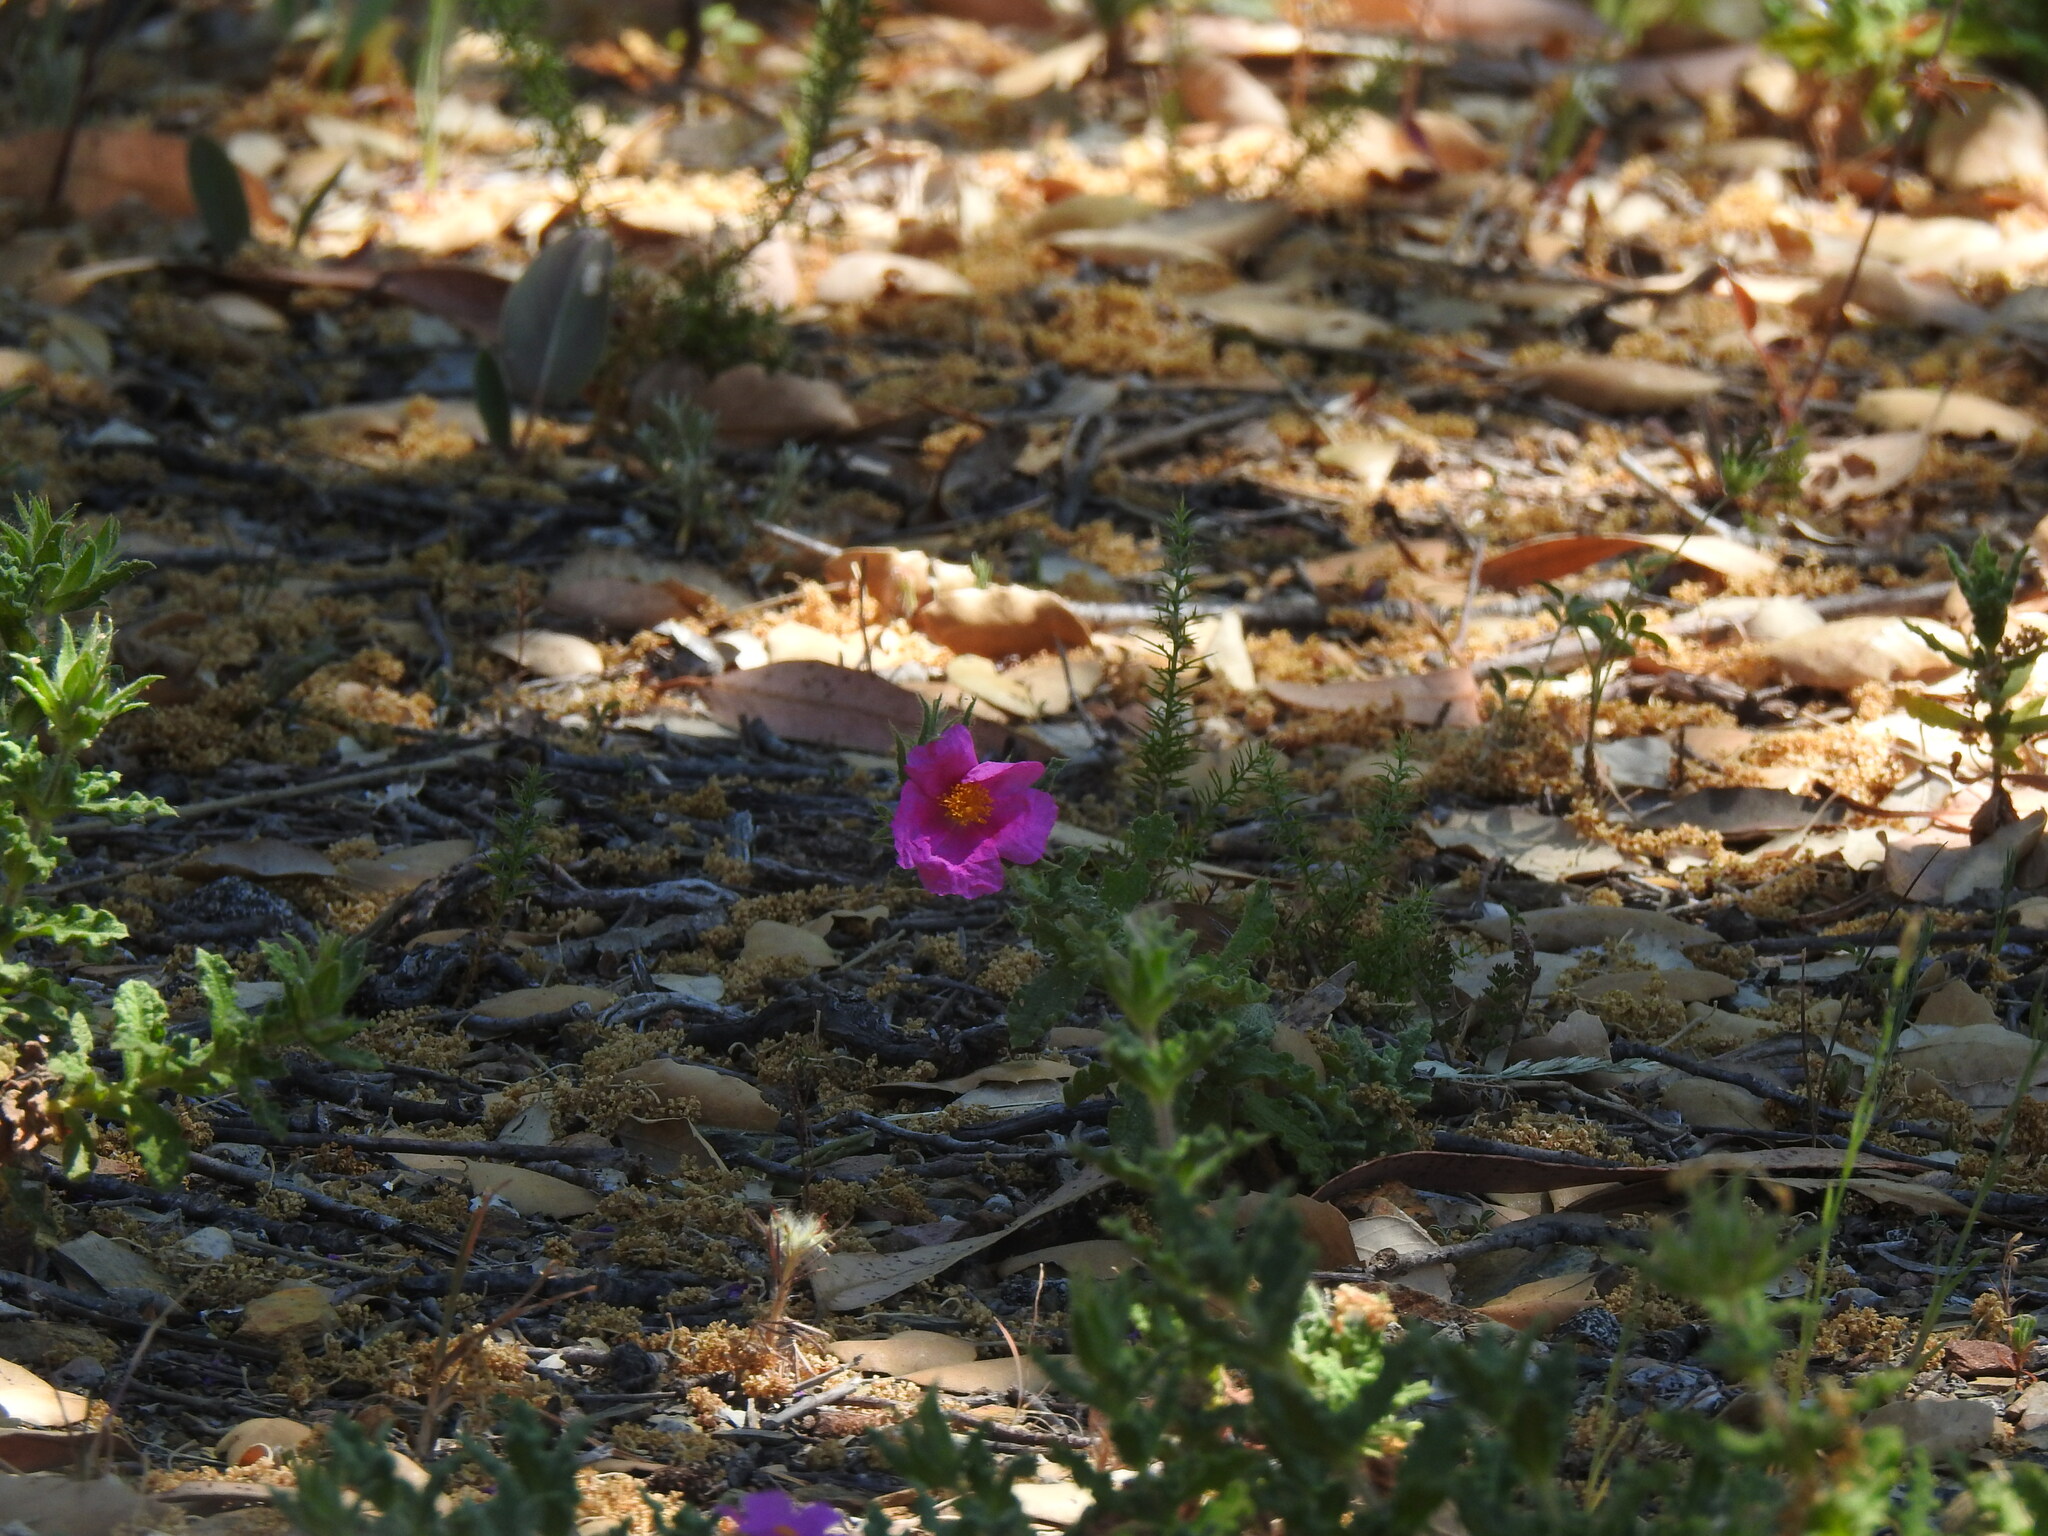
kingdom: Plantae
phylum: Tracheophyta
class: Magnoliopsida
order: Malvales
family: Cistaceae
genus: Cistus
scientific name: Cistus crispus
